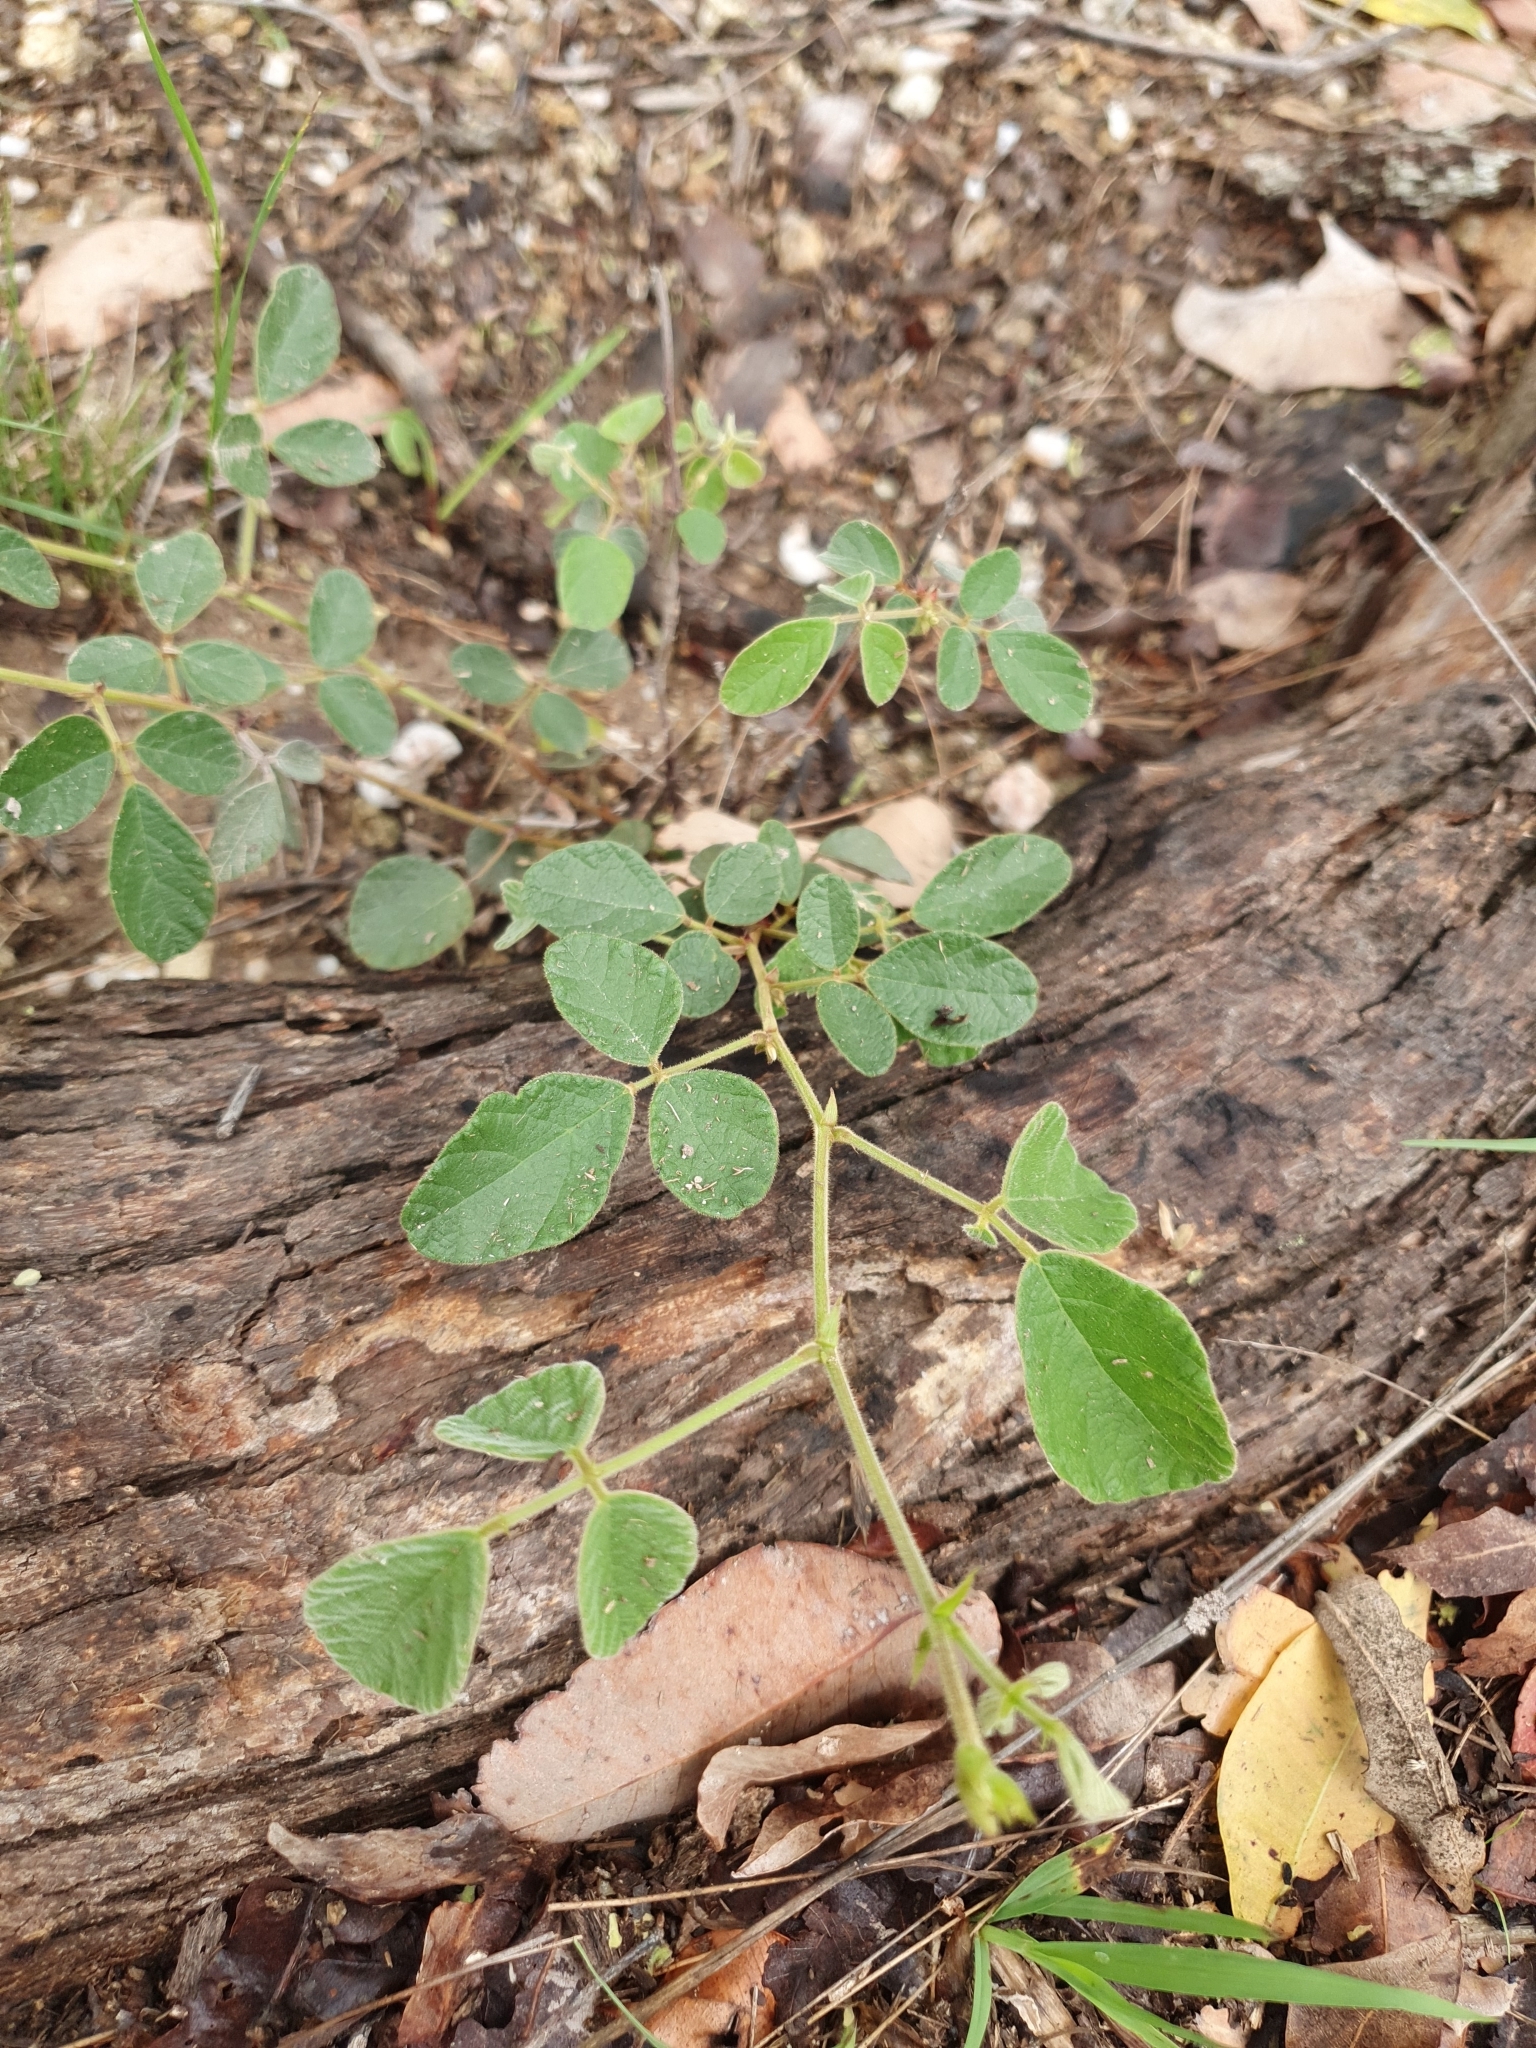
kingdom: Plantae
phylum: Tracheophyta
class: Magnoliopsida
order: Fabales
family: Fabaceae
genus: Maekawaea
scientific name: Maekawaea rhytidophylla
